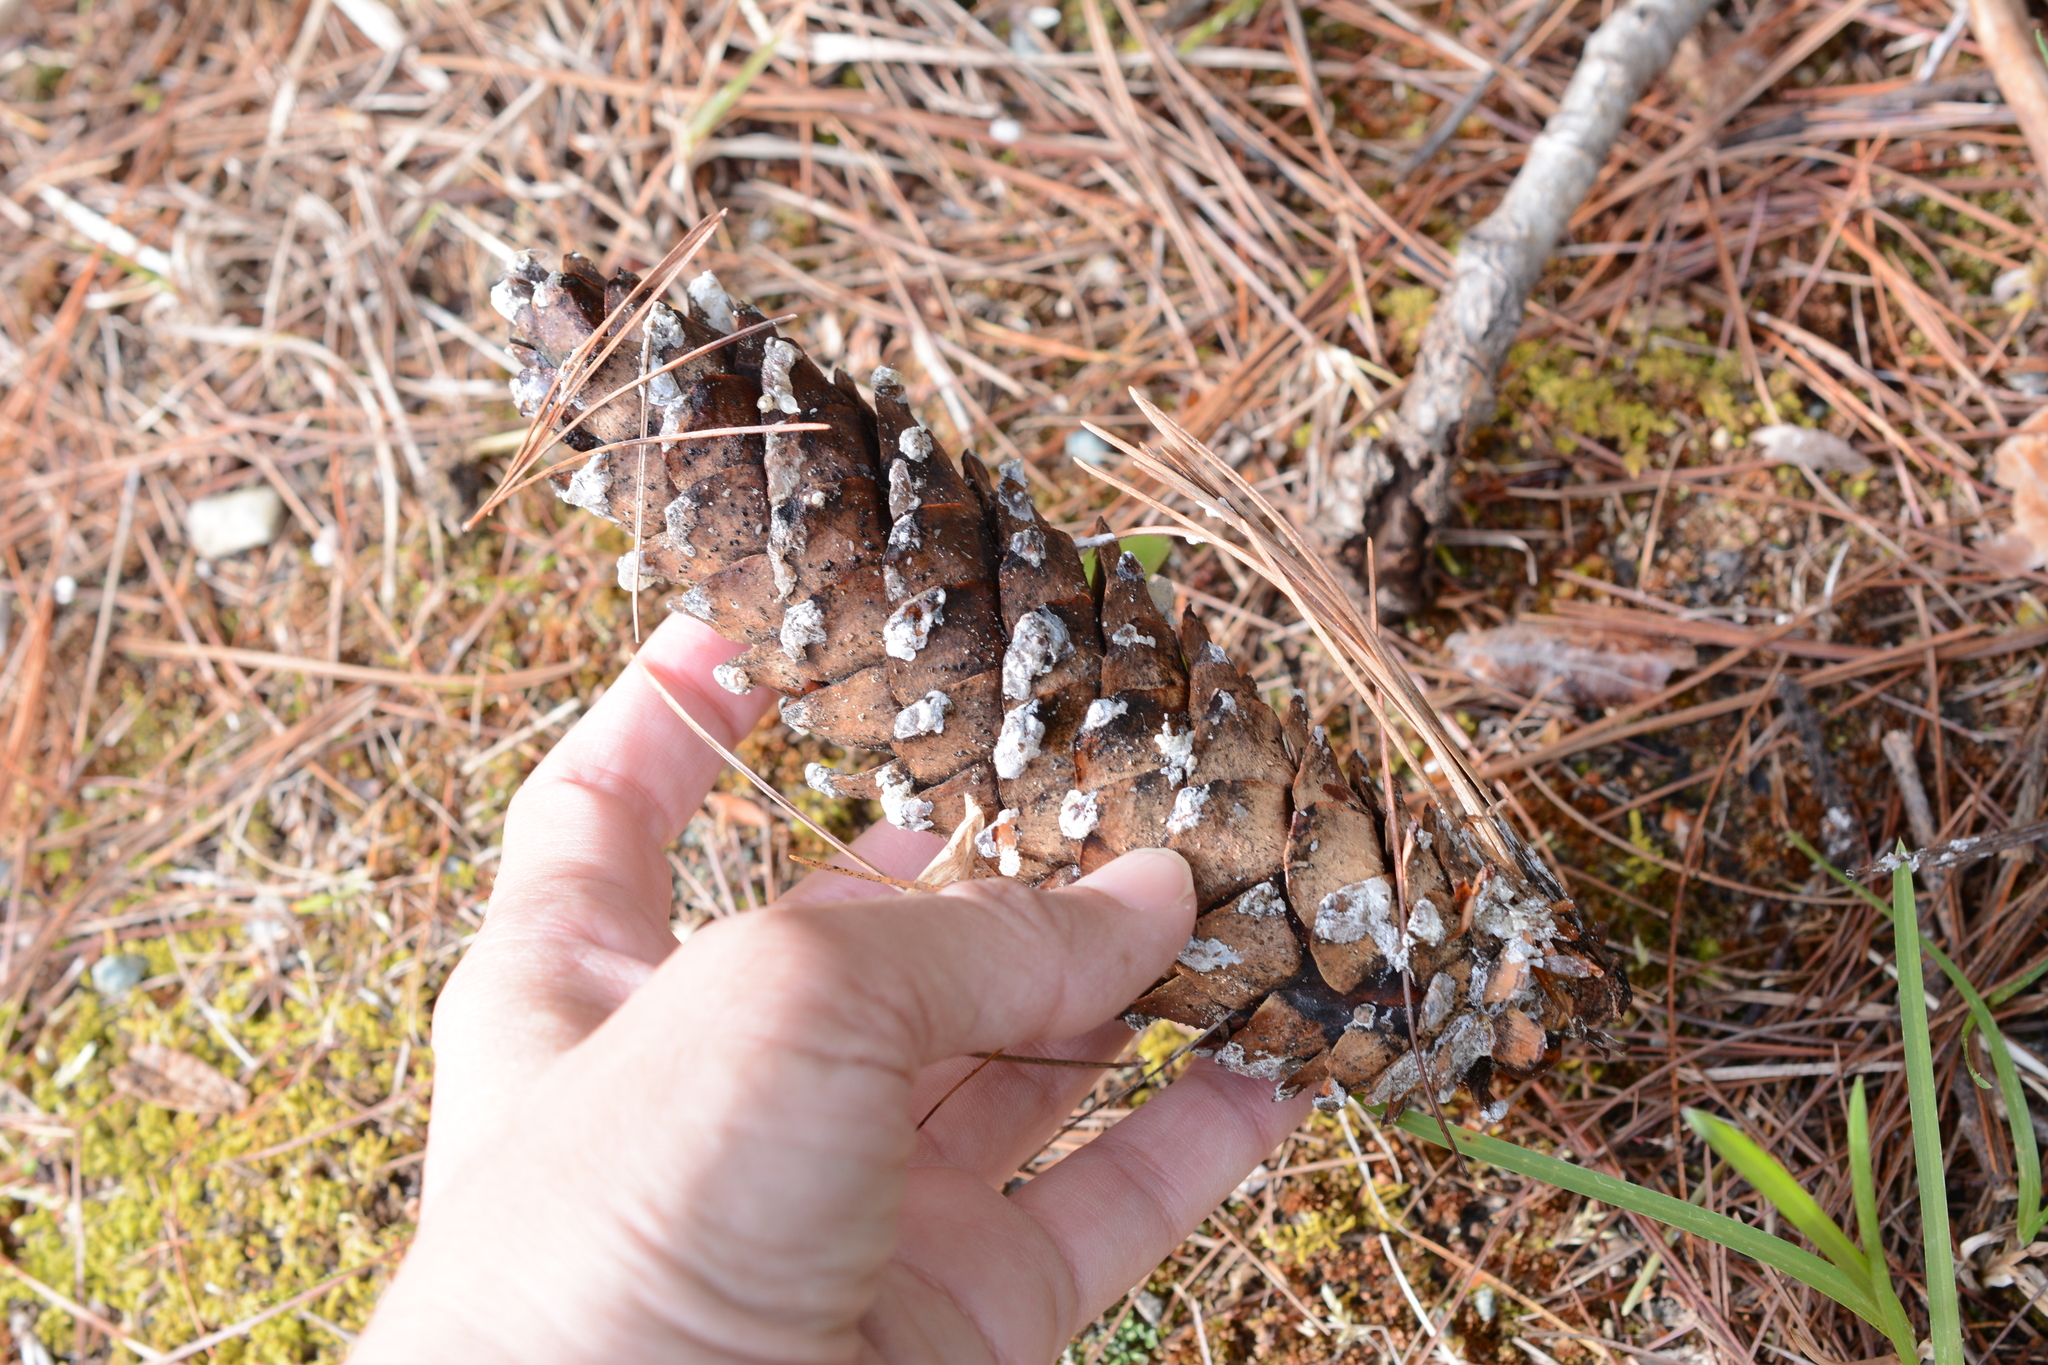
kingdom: Plantae
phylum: Tracheophyta
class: Pinopsida
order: Pinales
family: Pinaceae
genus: Pinus
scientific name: Pinus monticola
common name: Western white pine
